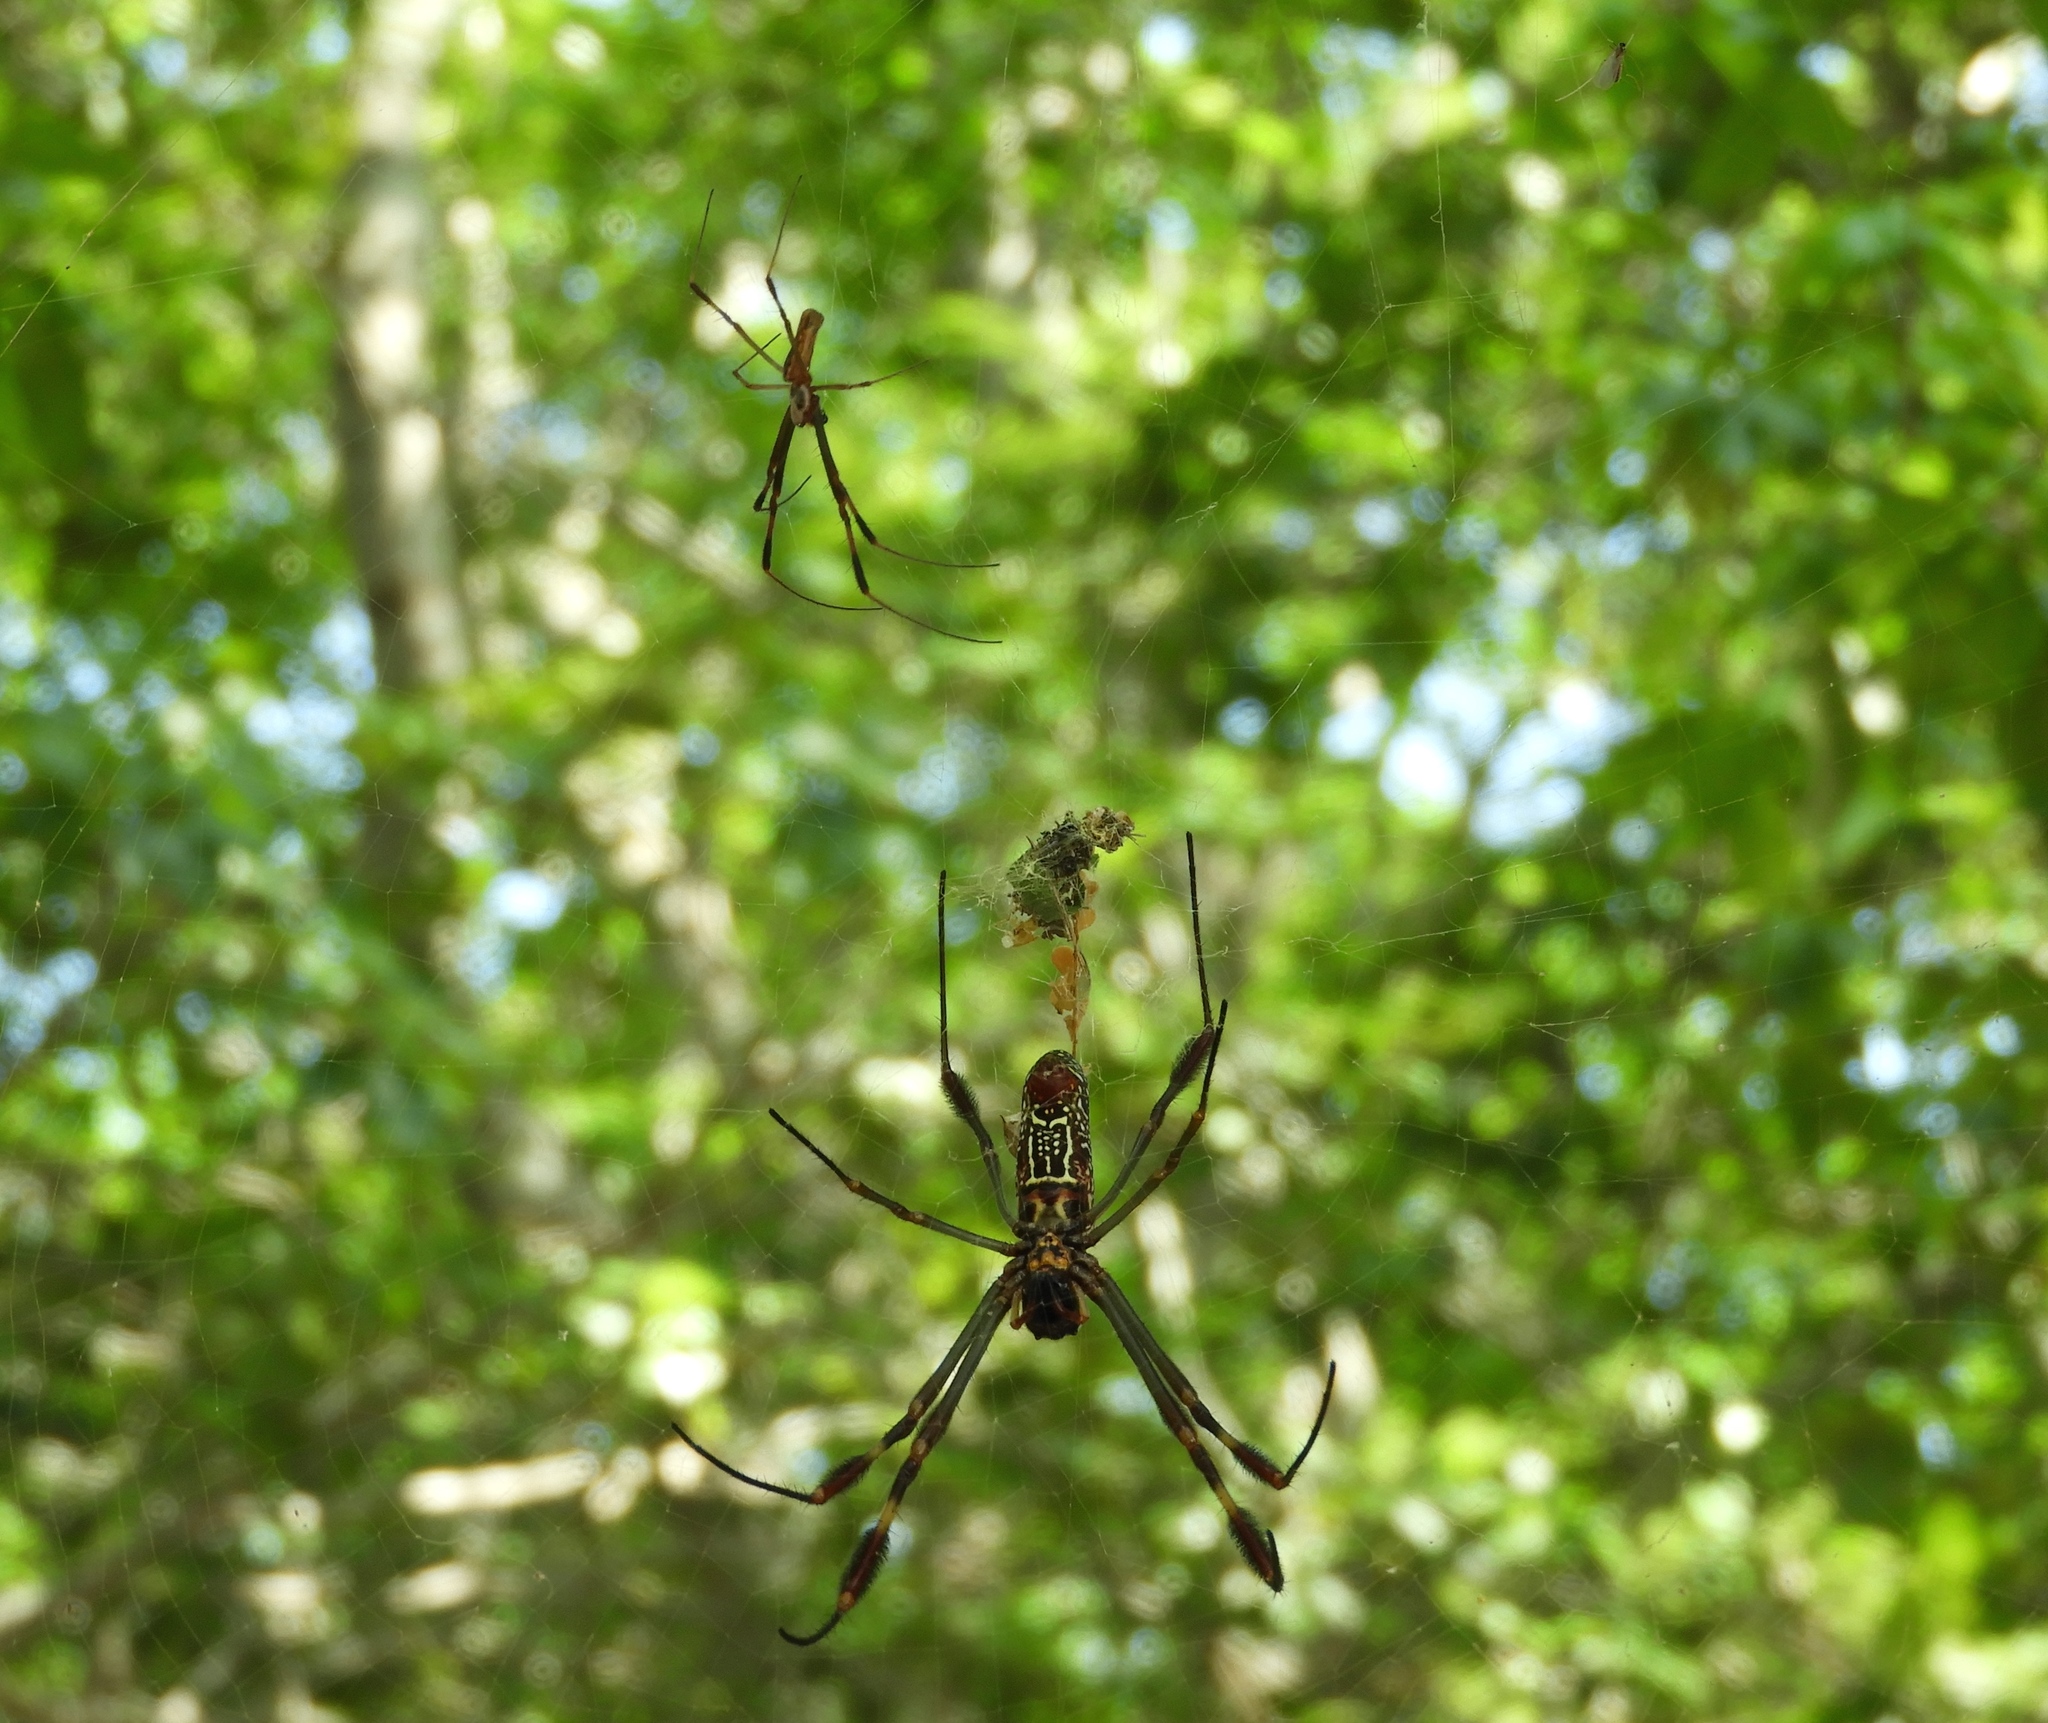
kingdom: Animalia
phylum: Arthropoda
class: Arachnida
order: Araneae
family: Araneidae
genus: Trichonephila
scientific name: Trichonephila clavipes
